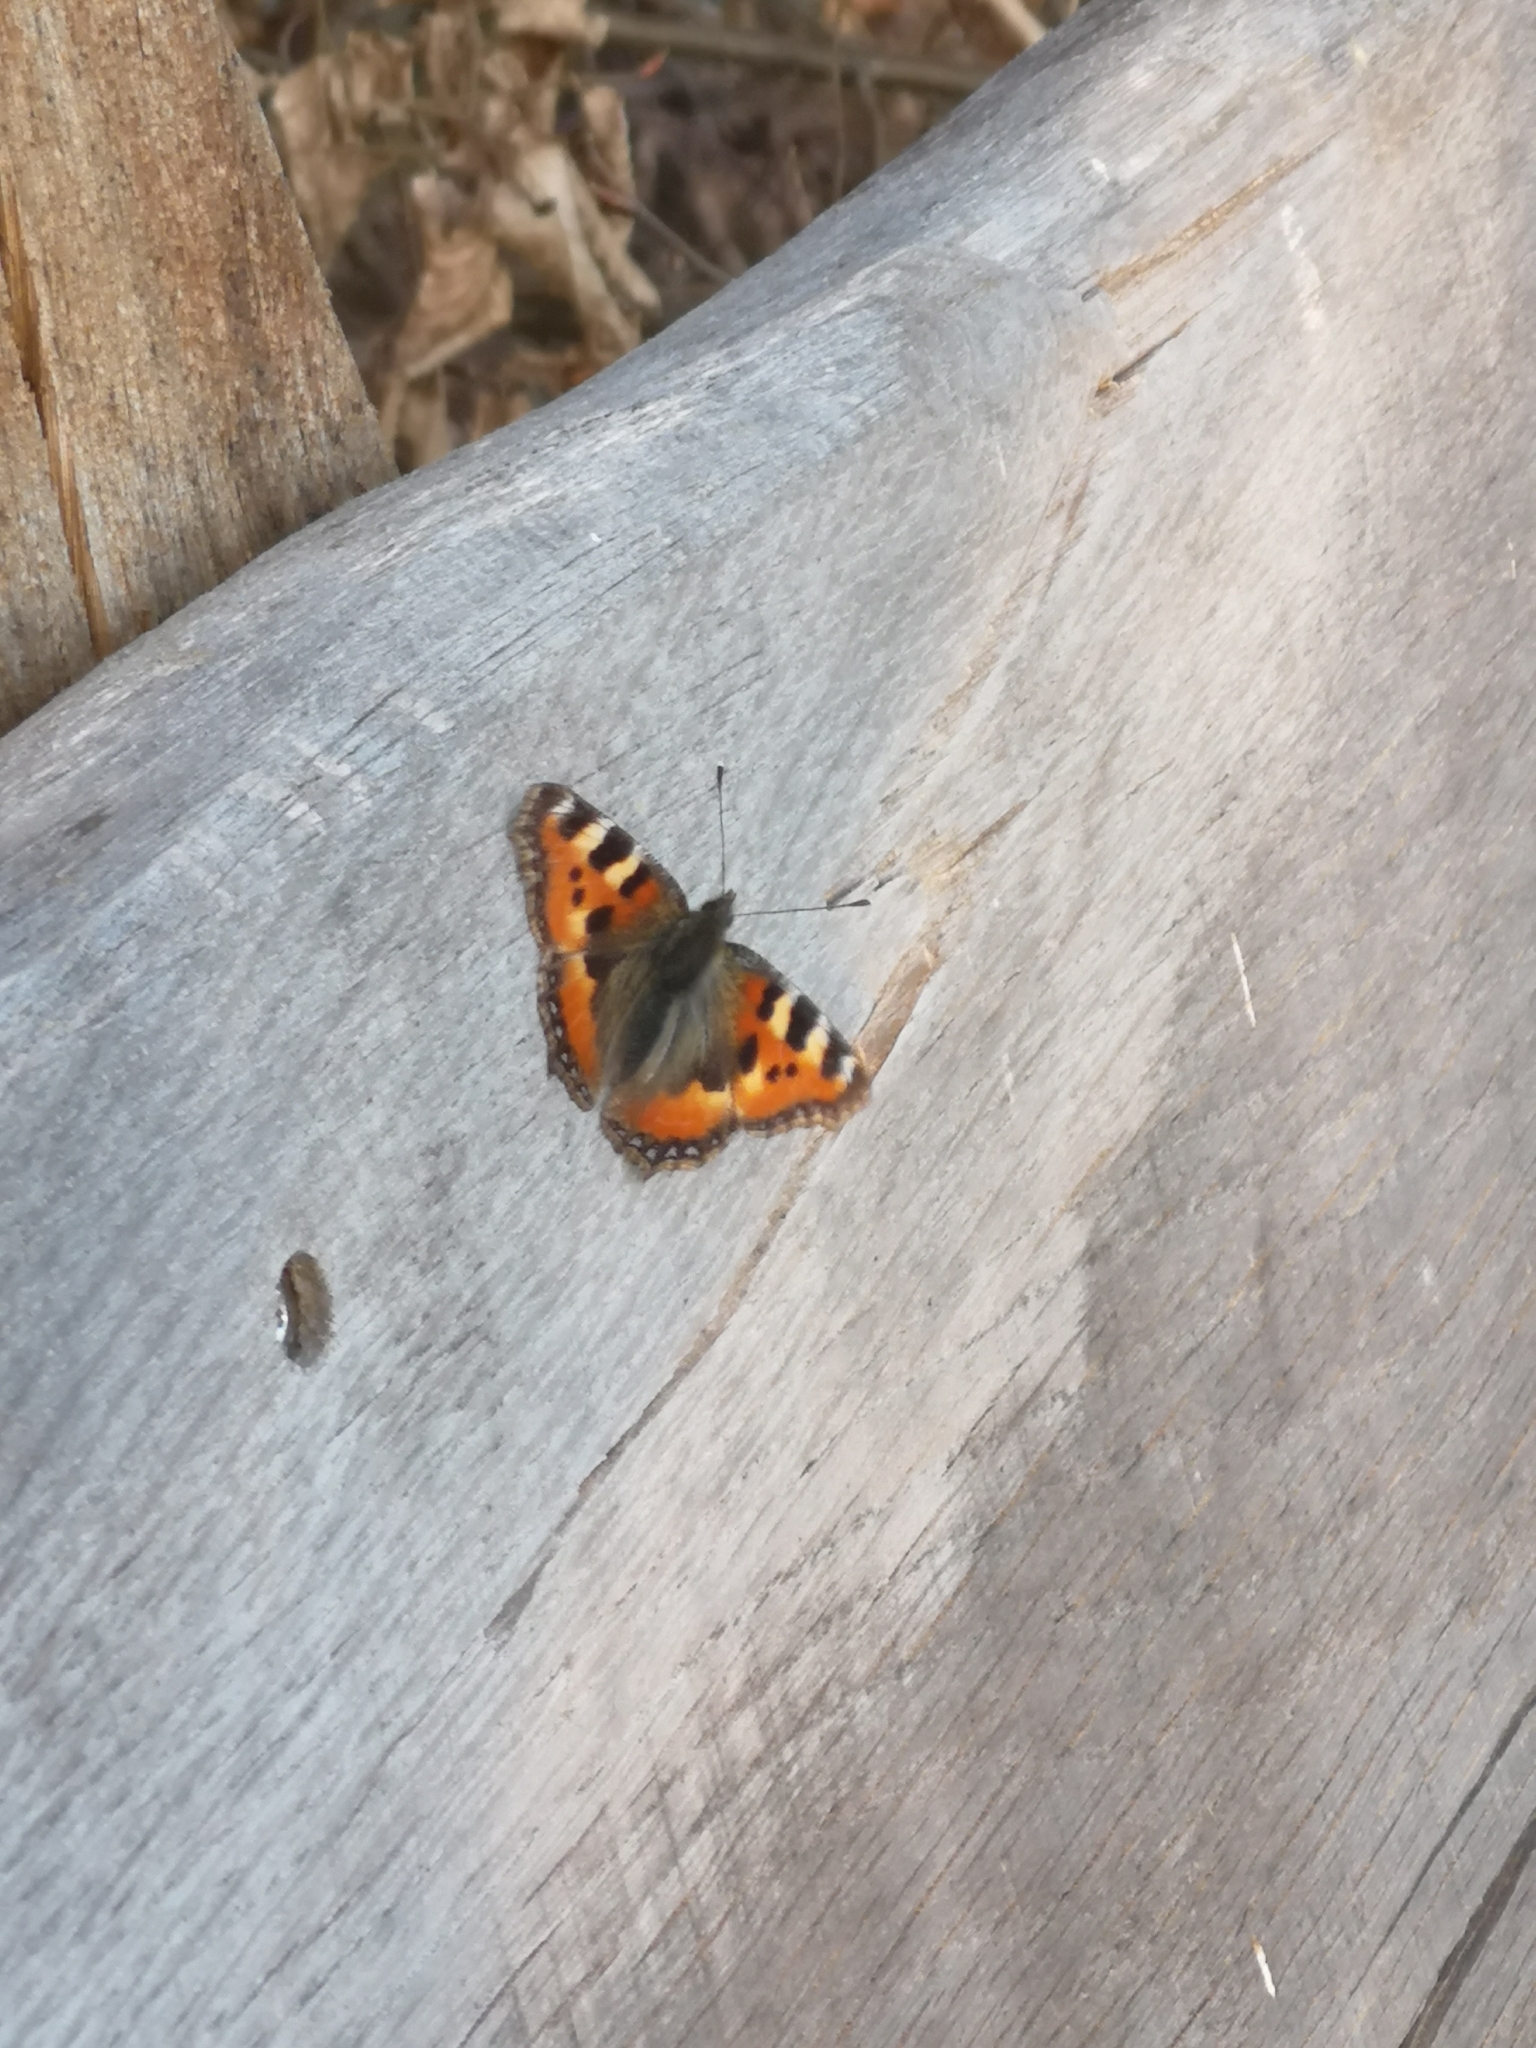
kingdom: Animalia
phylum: Arthropoda
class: Insecta
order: Lepidoptera
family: Nymphalidae
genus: Aglais
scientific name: Aglais urticae
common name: Small tortoiseshell
